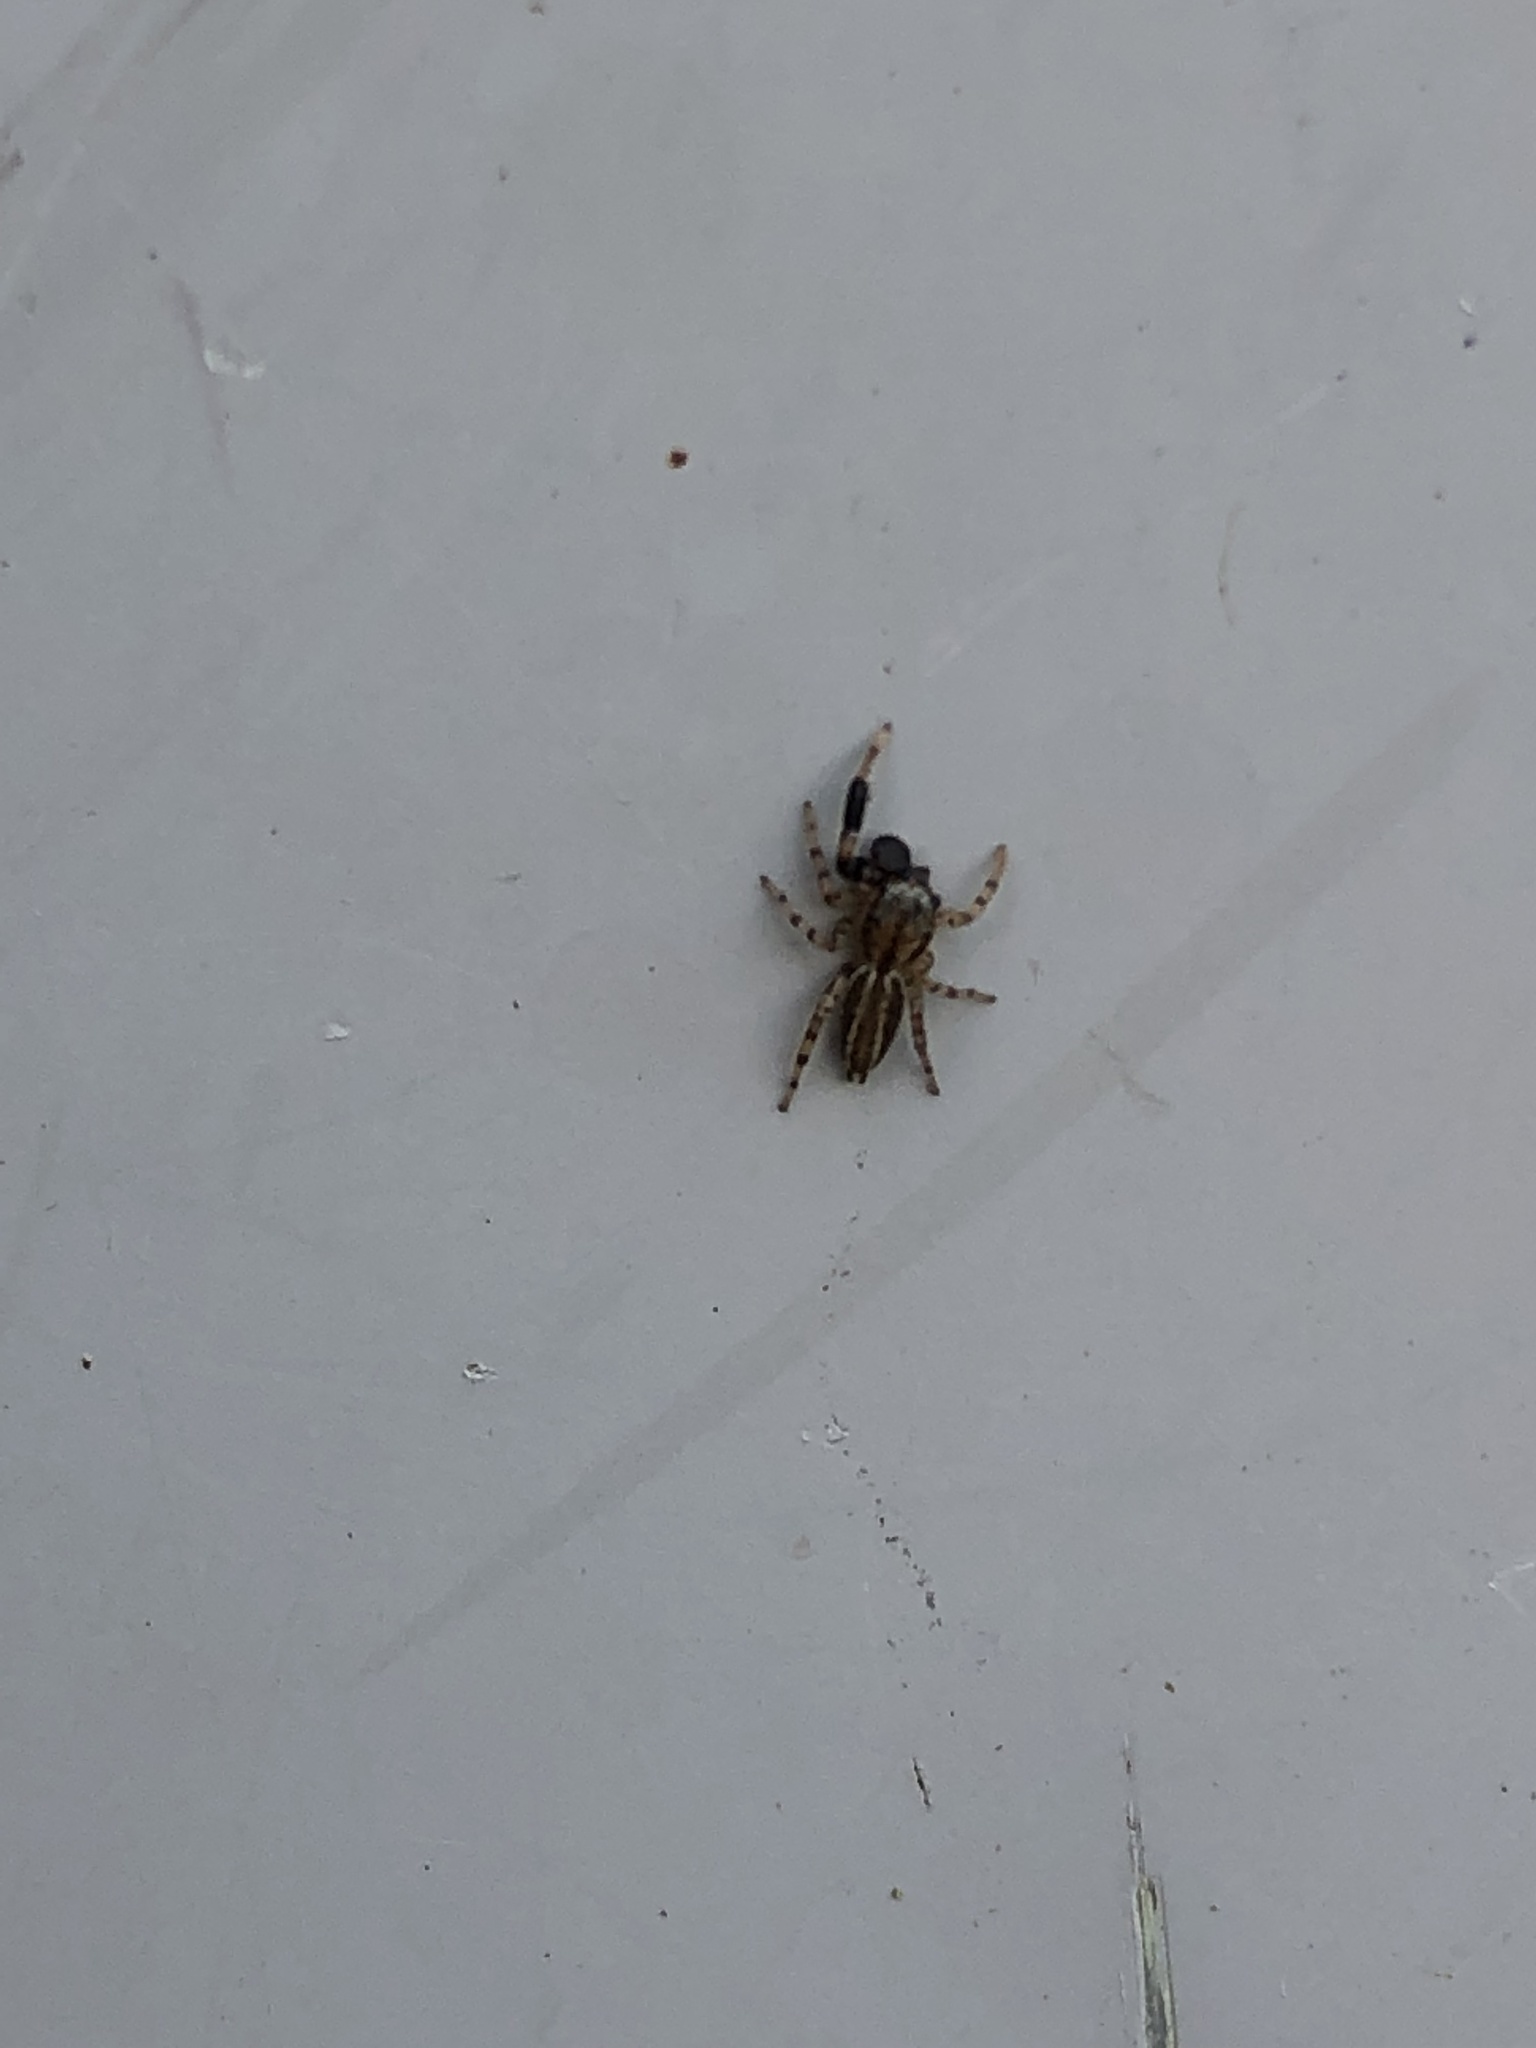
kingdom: Animalia
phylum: Arthropoda
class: Arachnida
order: Araneae
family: Salticidae
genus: Marpissa
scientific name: Marpissa lineata
